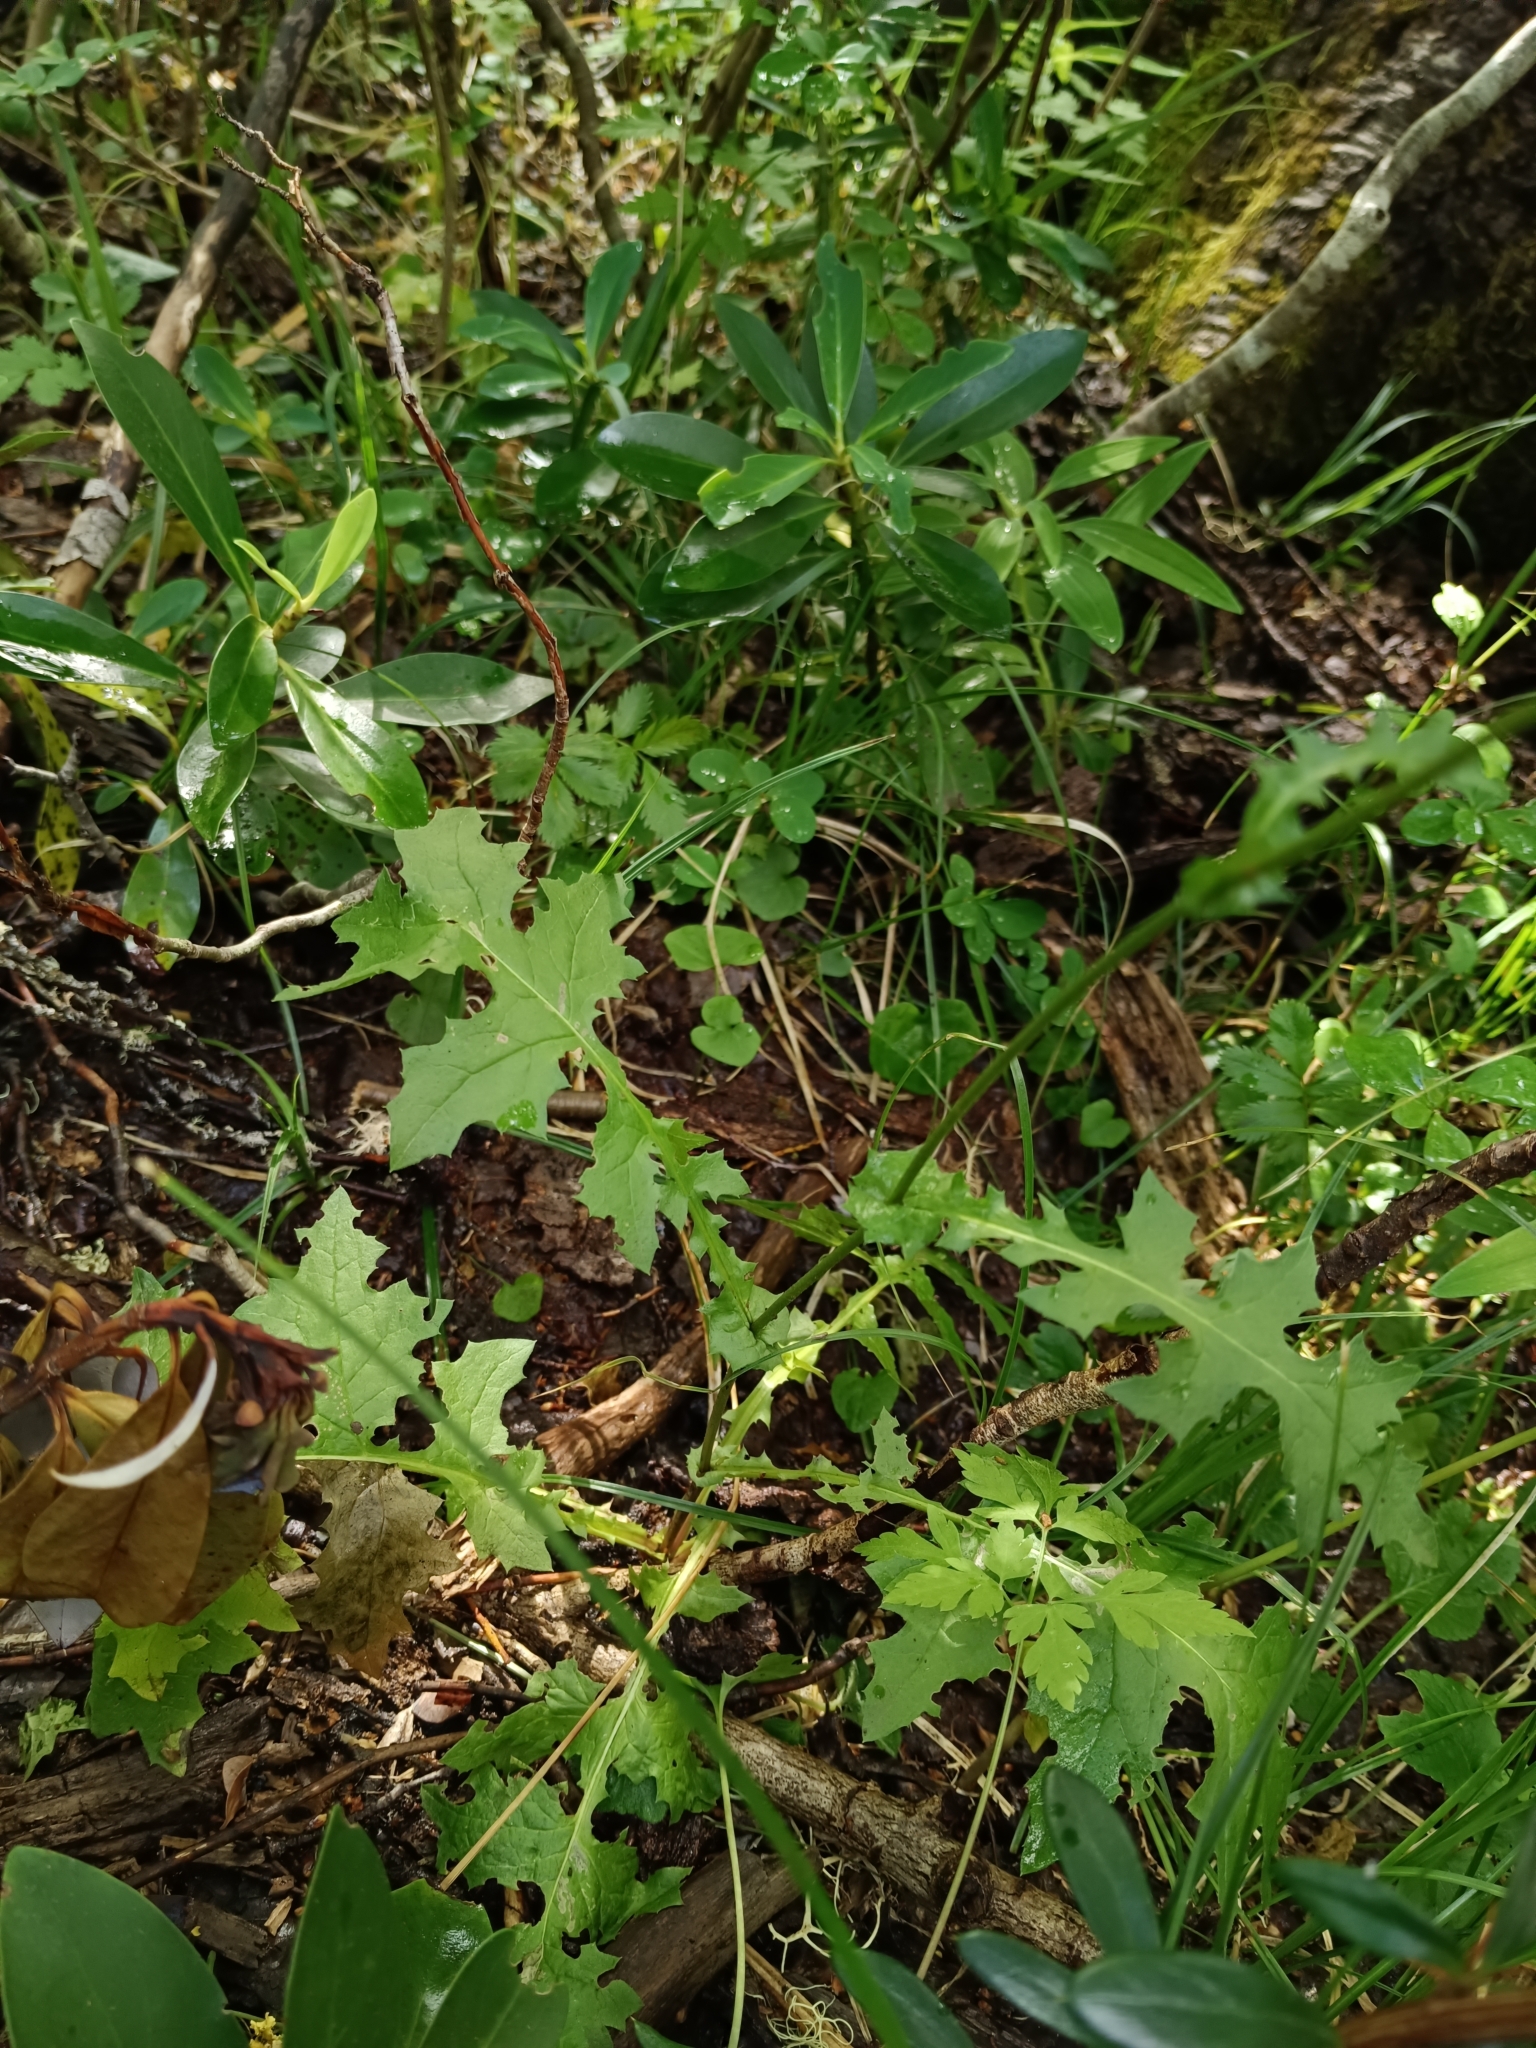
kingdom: Plantae
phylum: Tracheophyta
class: Magnoliopsida
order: Asterales
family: Asteraceae
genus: Perezia
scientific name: Perezia prenanthoides
